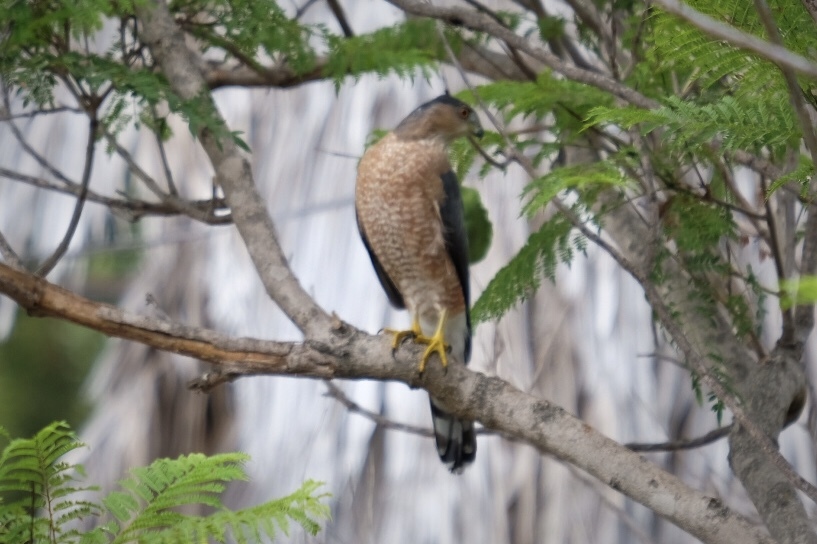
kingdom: Animalia
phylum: Chordata
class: Aves
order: Accipitriformes
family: Accipitridae
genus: Accipiter
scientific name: Accipiter cooperii
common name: Cooper's hawk
